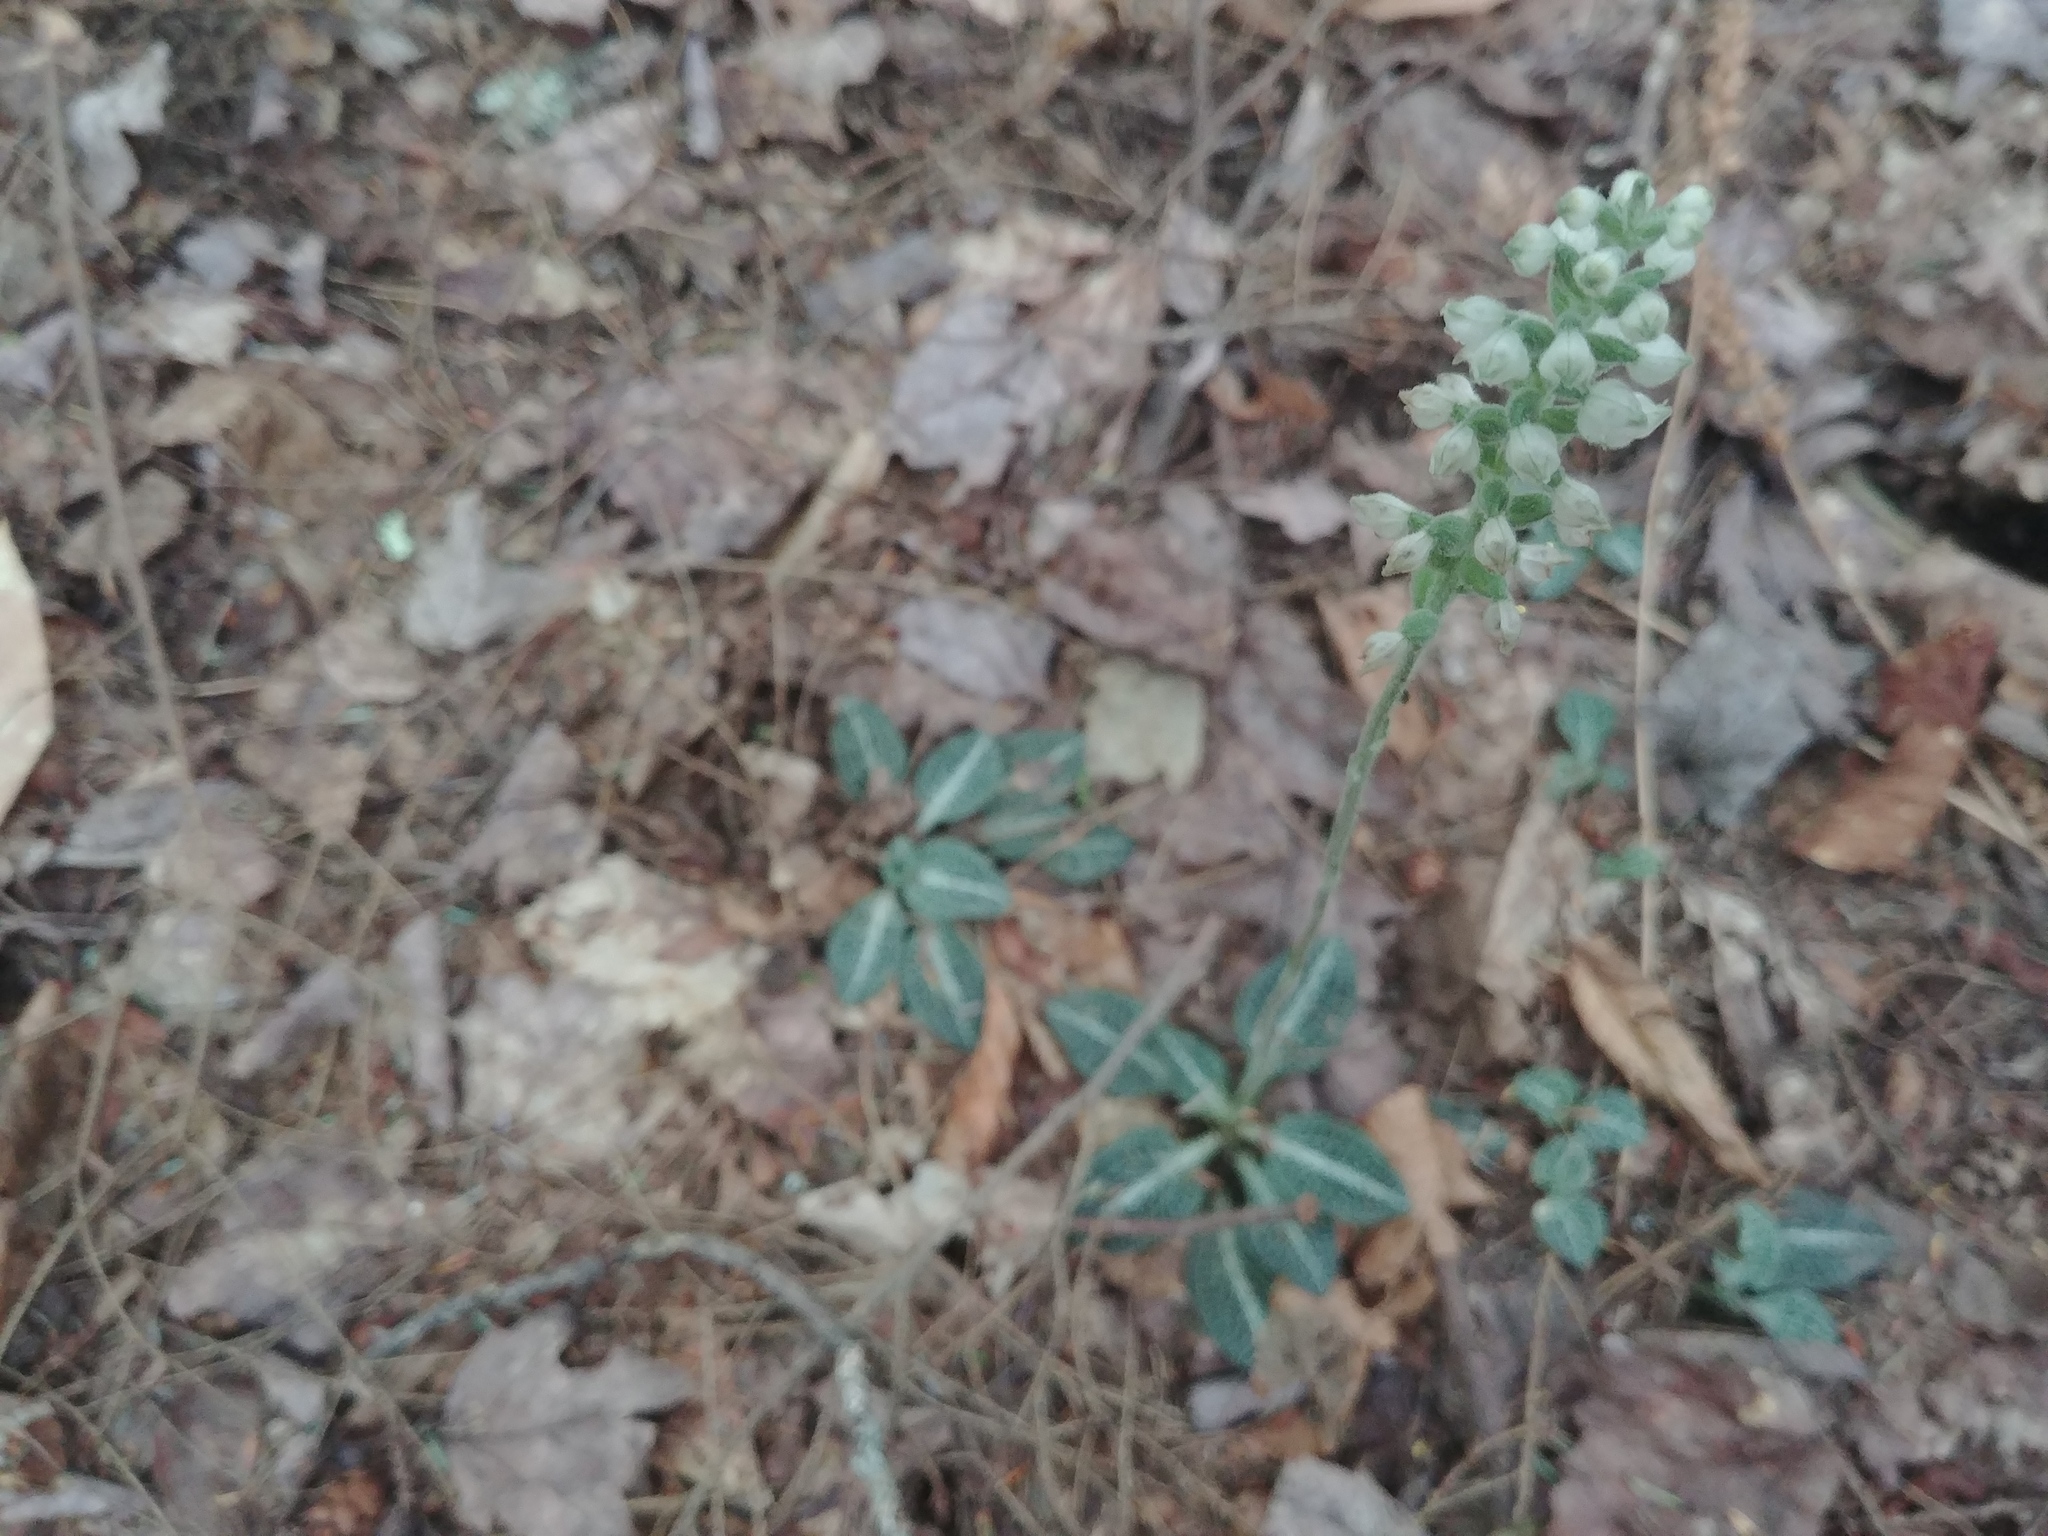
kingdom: Plantae
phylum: Tracheophyta
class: Liliopsida
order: Asparagales
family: Orchidaceae
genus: Goodyera
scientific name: Goodyera pubescens
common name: Downy rattlesnake-plantain
